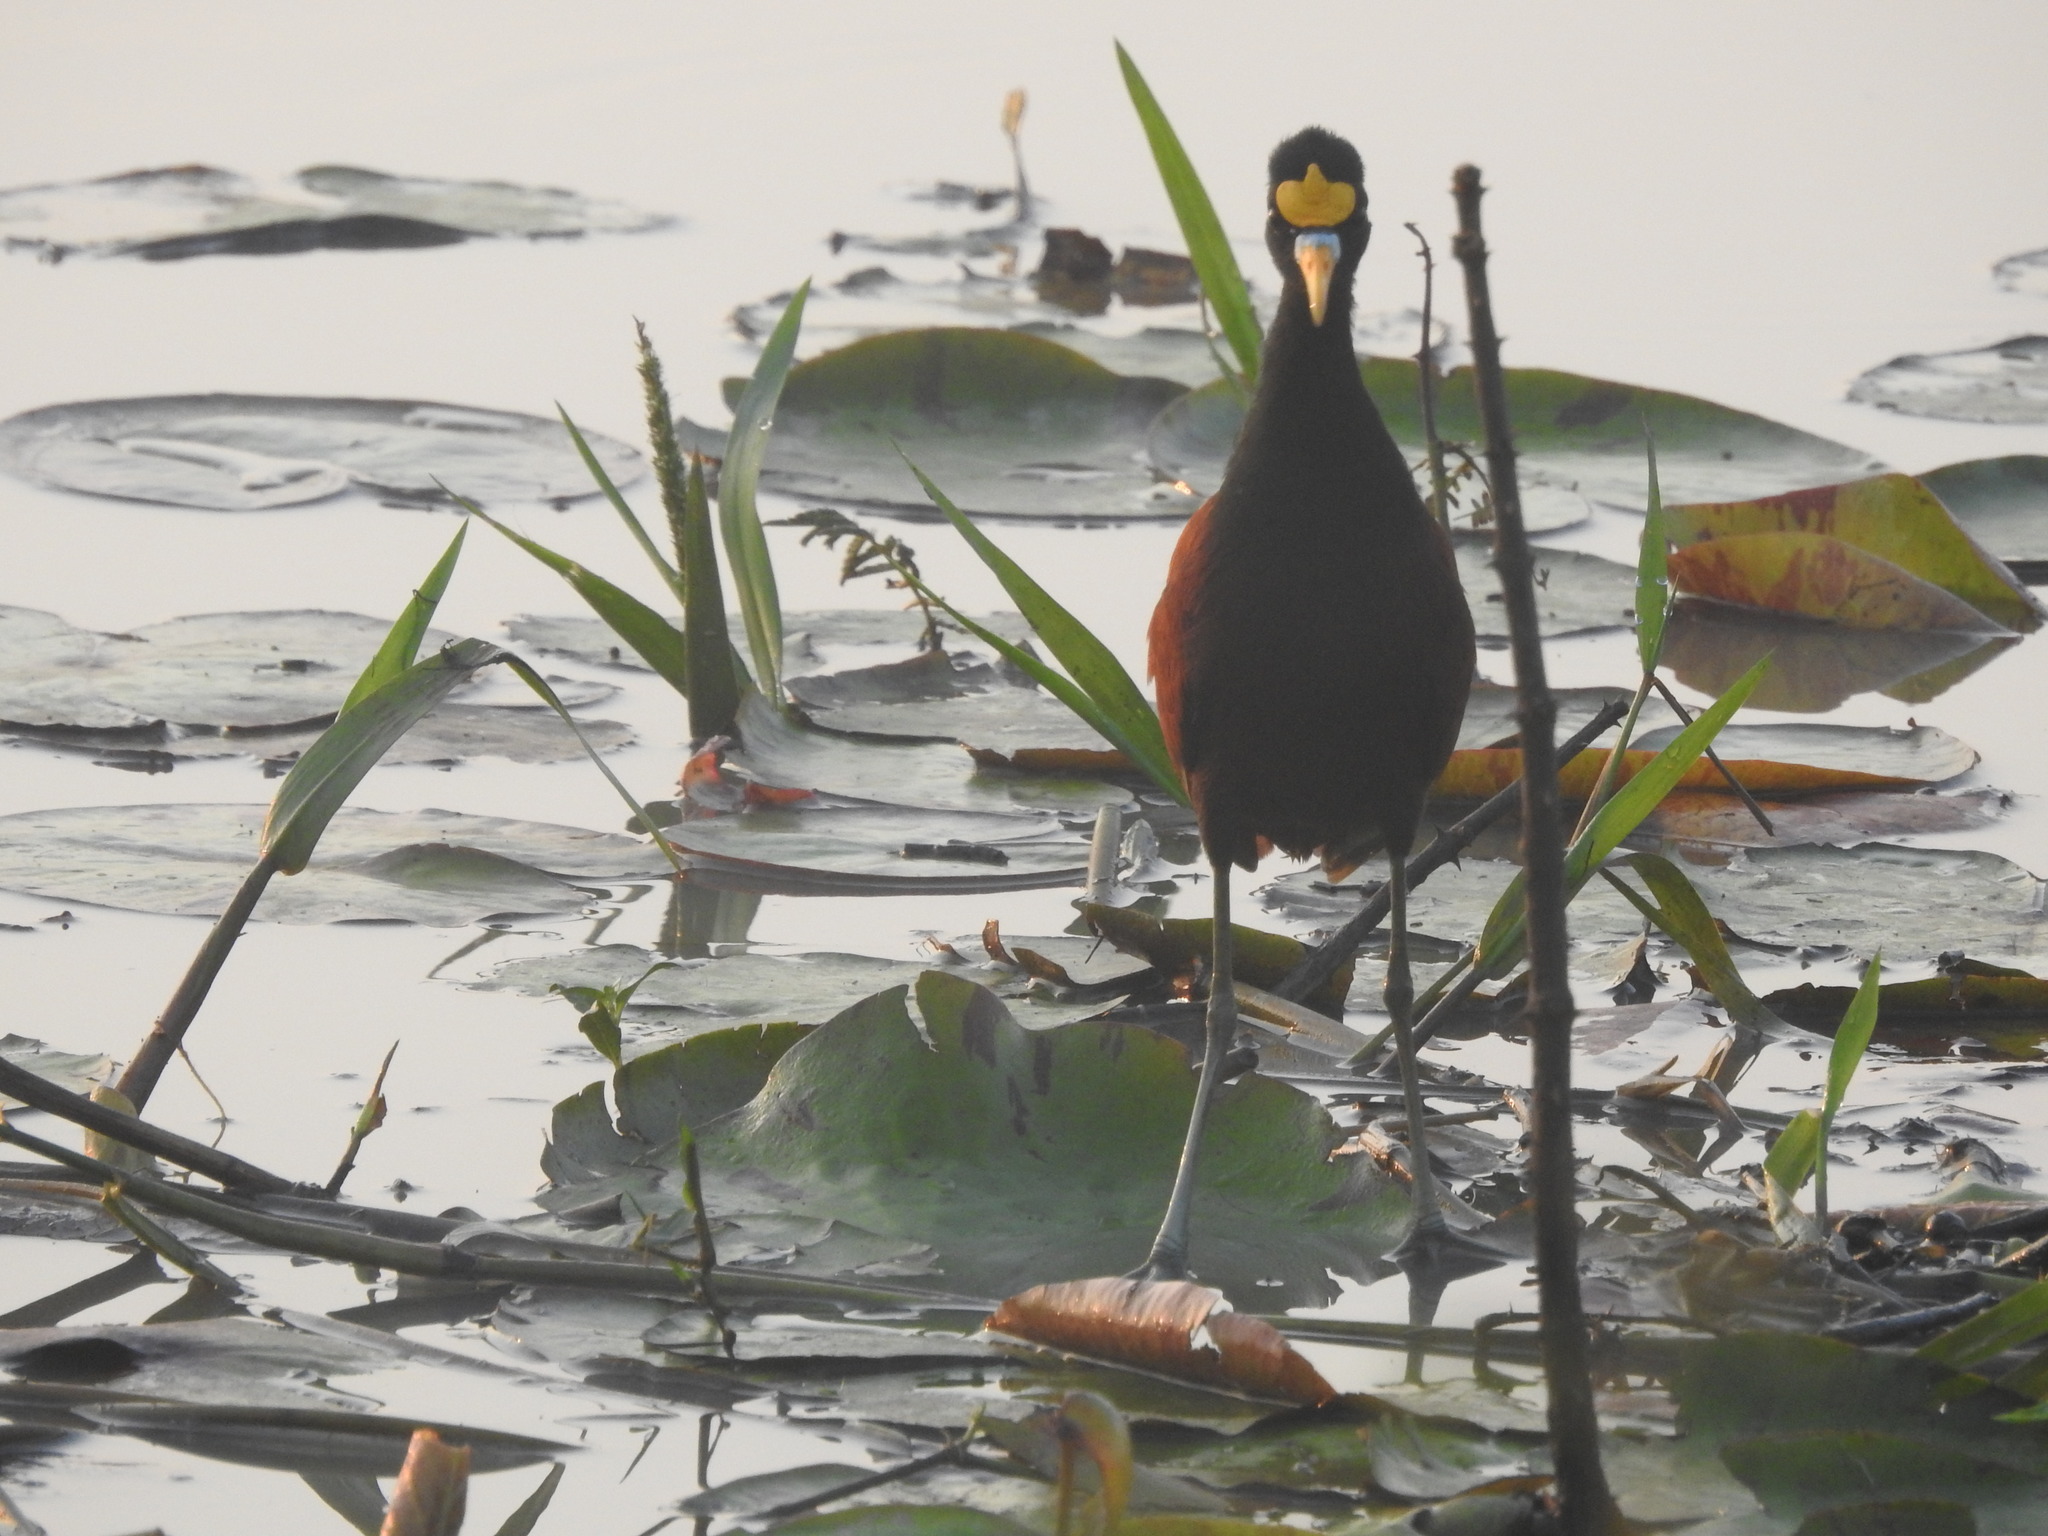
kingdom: Animalia
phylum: Chordata
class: Aves
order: Charadriiformes
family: Jacanidae
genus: Jacana
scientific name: Jacana spinosa
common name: Northern jacana
